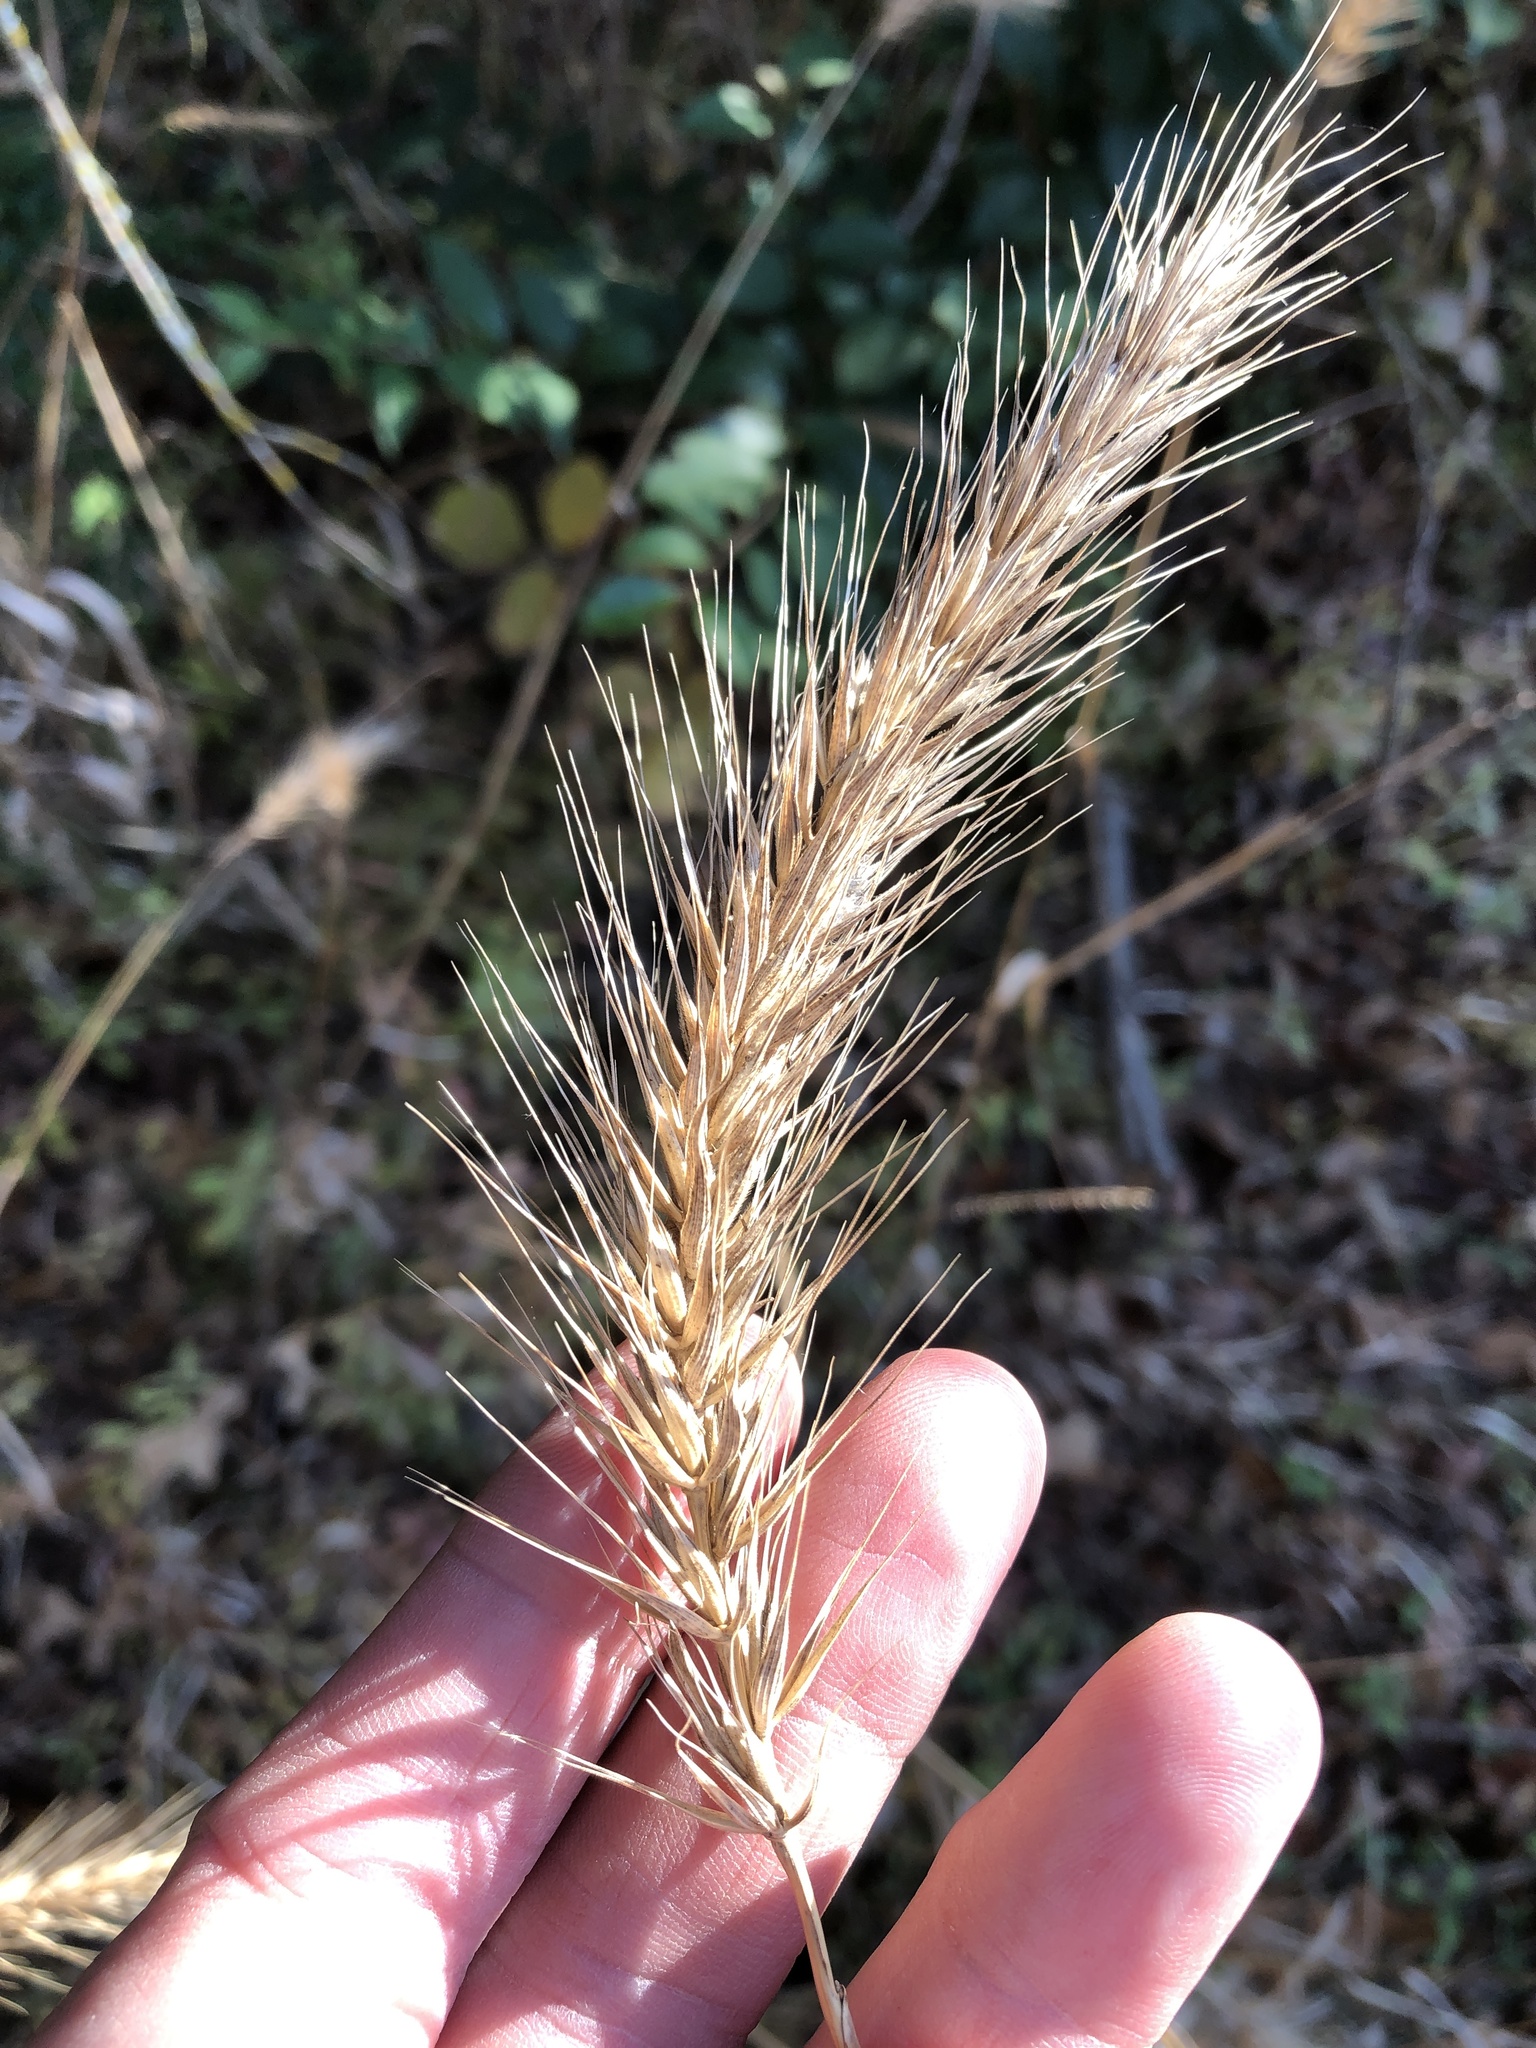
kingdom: Plantae
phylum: Tracheophyta
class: Liliopsida
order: Poales
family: Poaceae
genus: Elymus
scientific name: Elymus virginicus
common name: Common eastern wildrye
